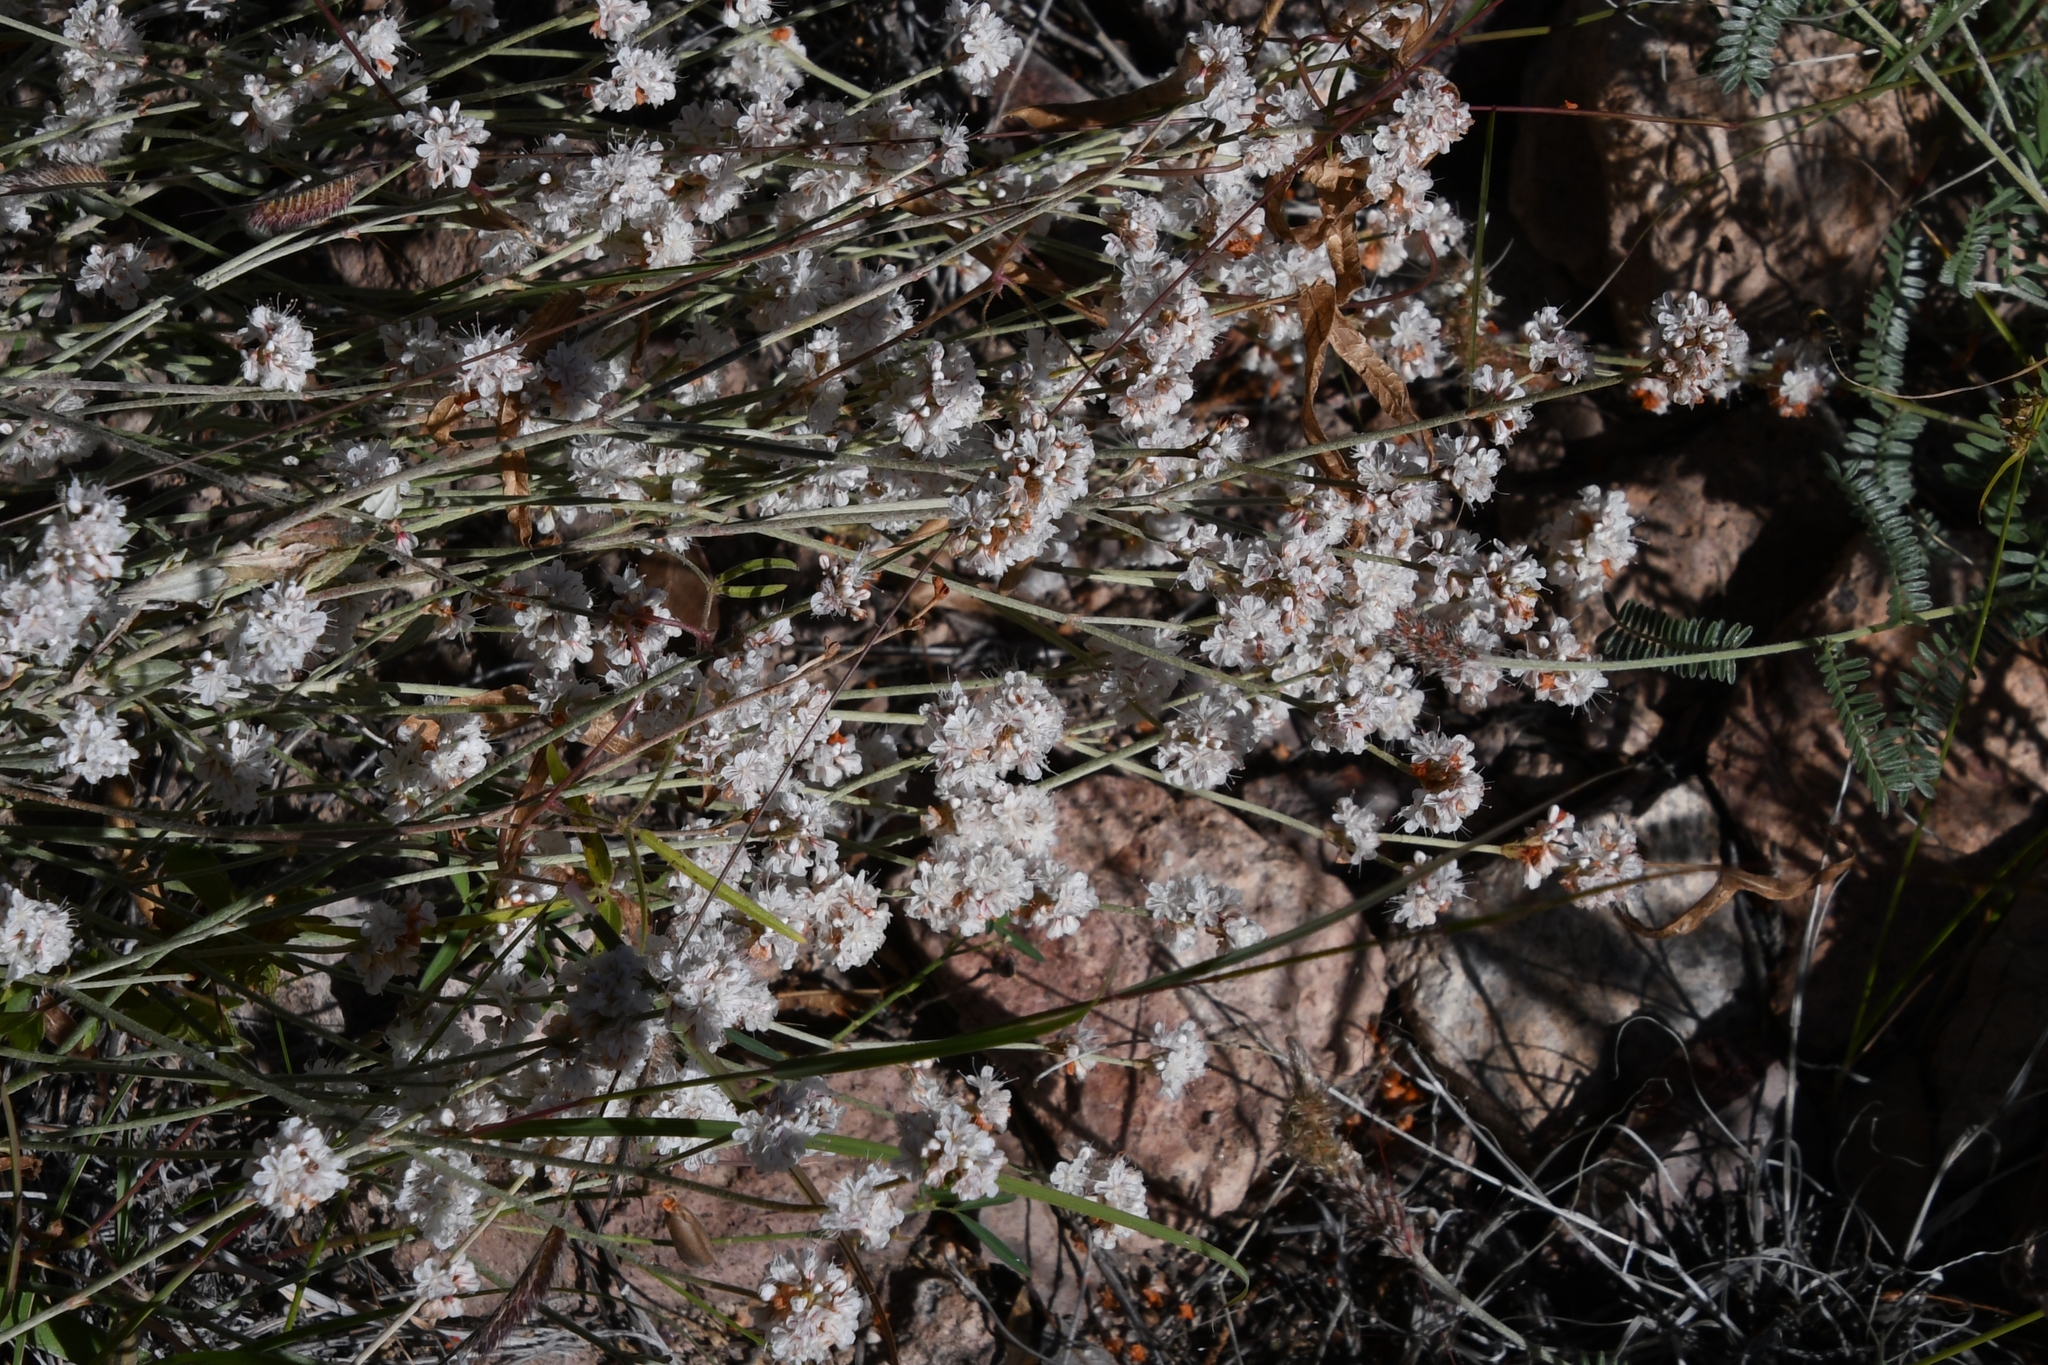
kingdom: Plantae
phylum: Tracheophyta
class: Magnoliopsida
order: Caryophyllales
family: Polygonaceae
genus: Eriogonum
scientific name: Eriogonum wrightii
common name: Bastard-sage
